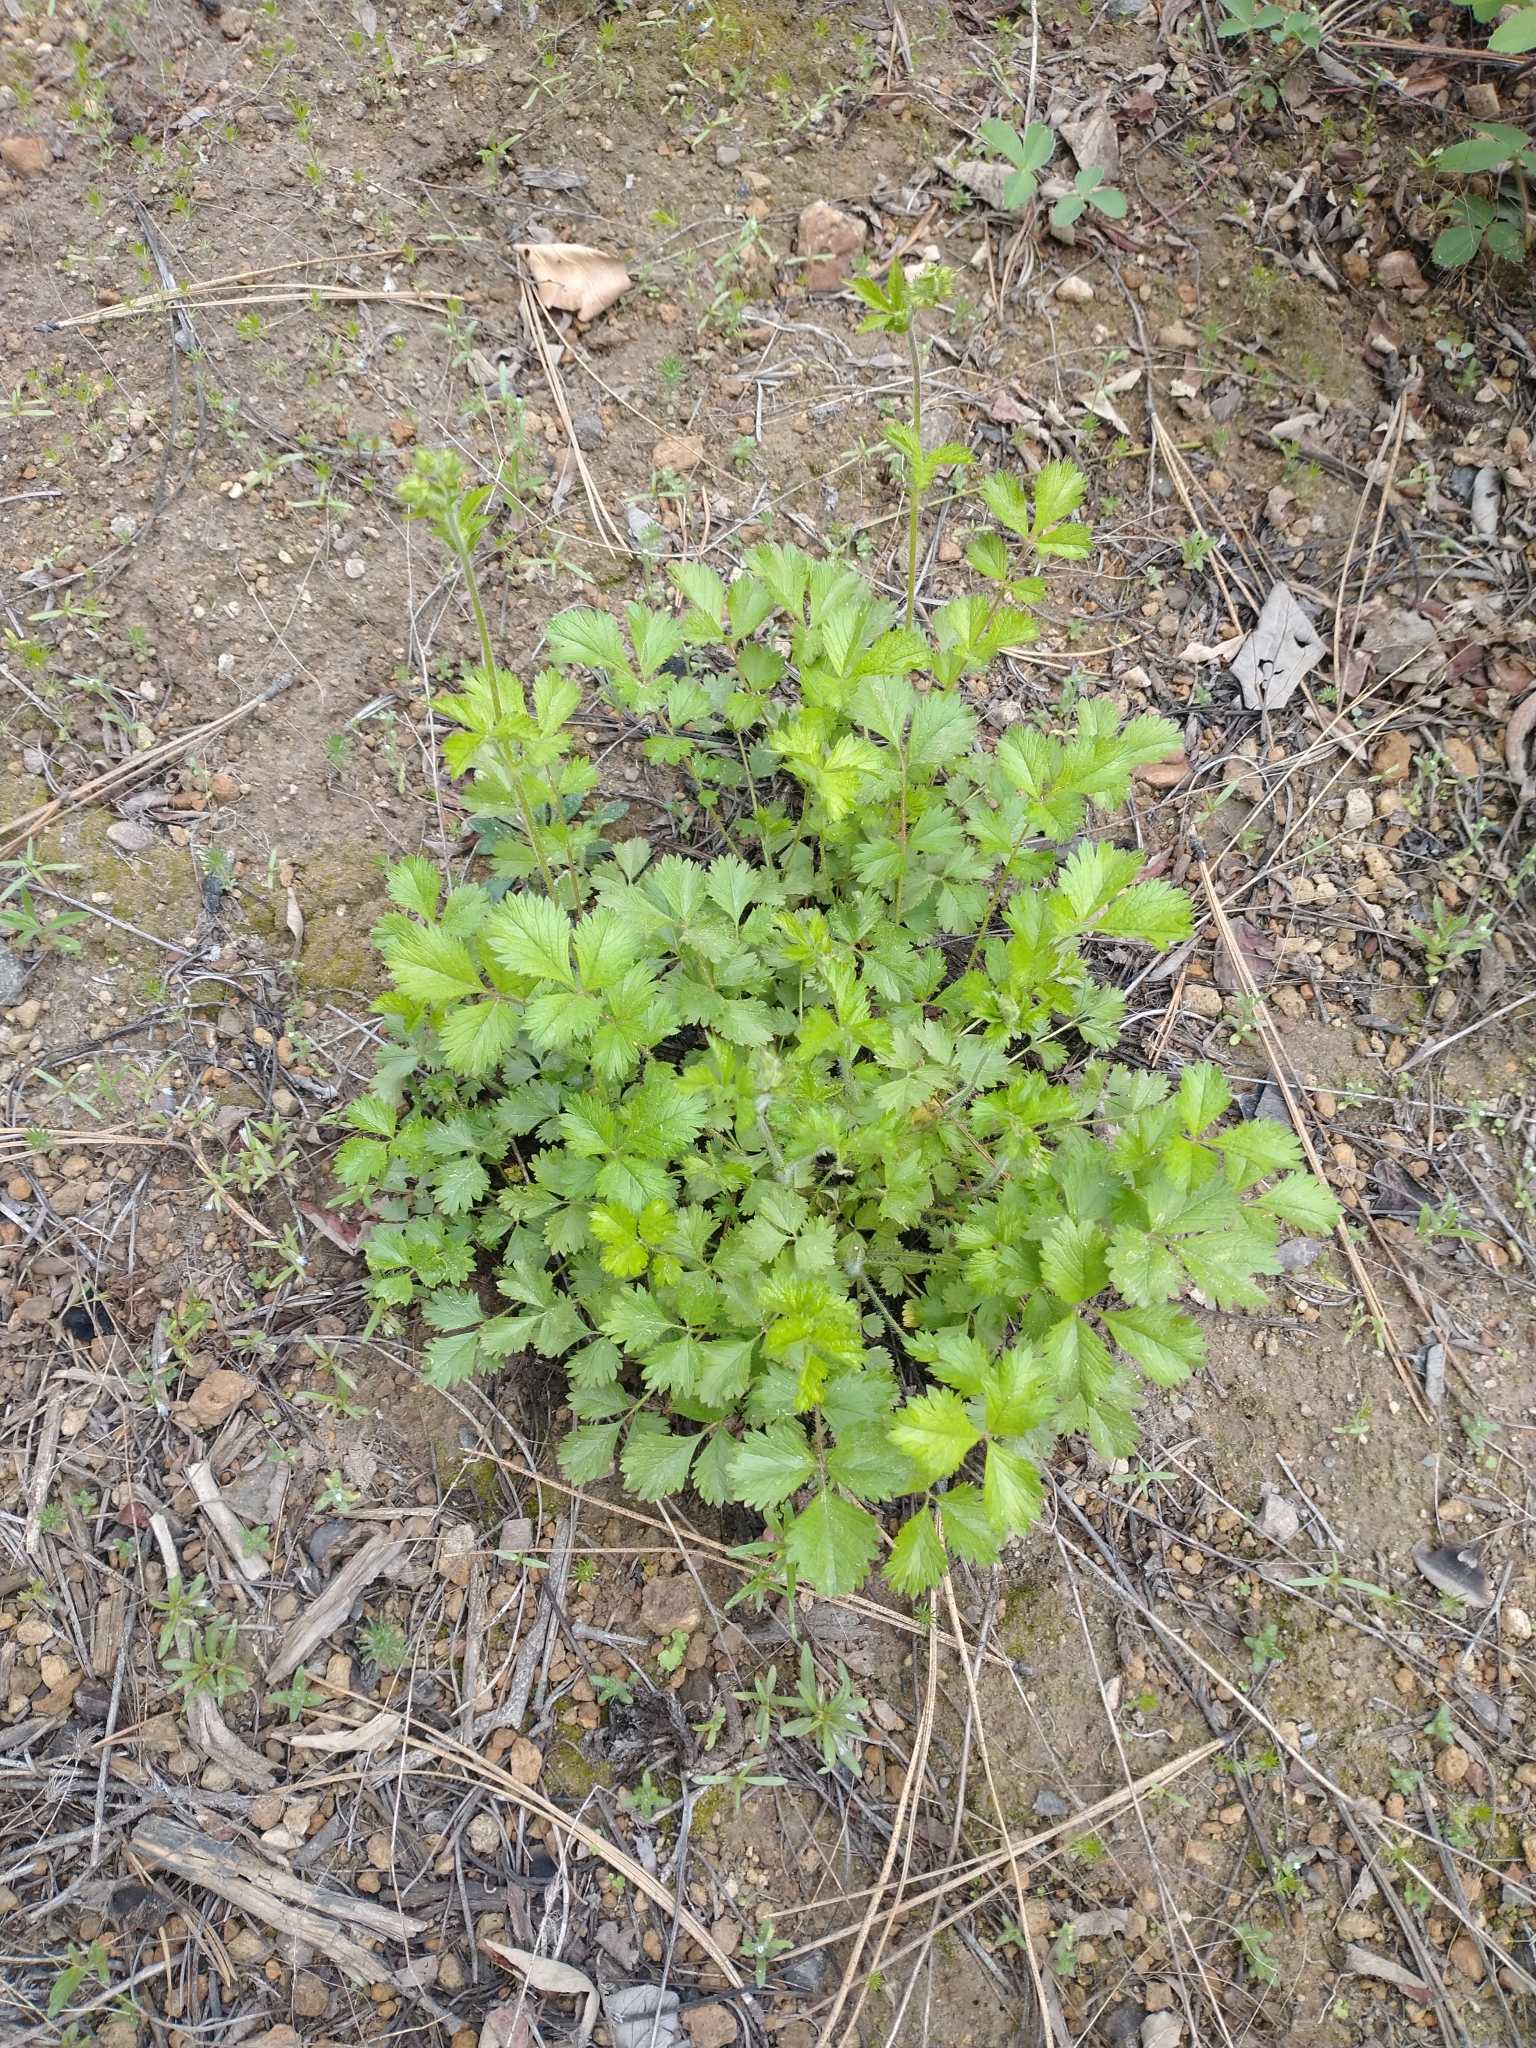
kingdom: Plantae
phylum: Tracheophyta
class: Magnoliopsida
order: Rosales
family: Rosaceae
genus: Drymocallis
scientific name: Drymocallis glandulosa
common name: Sticky cinquefoil
